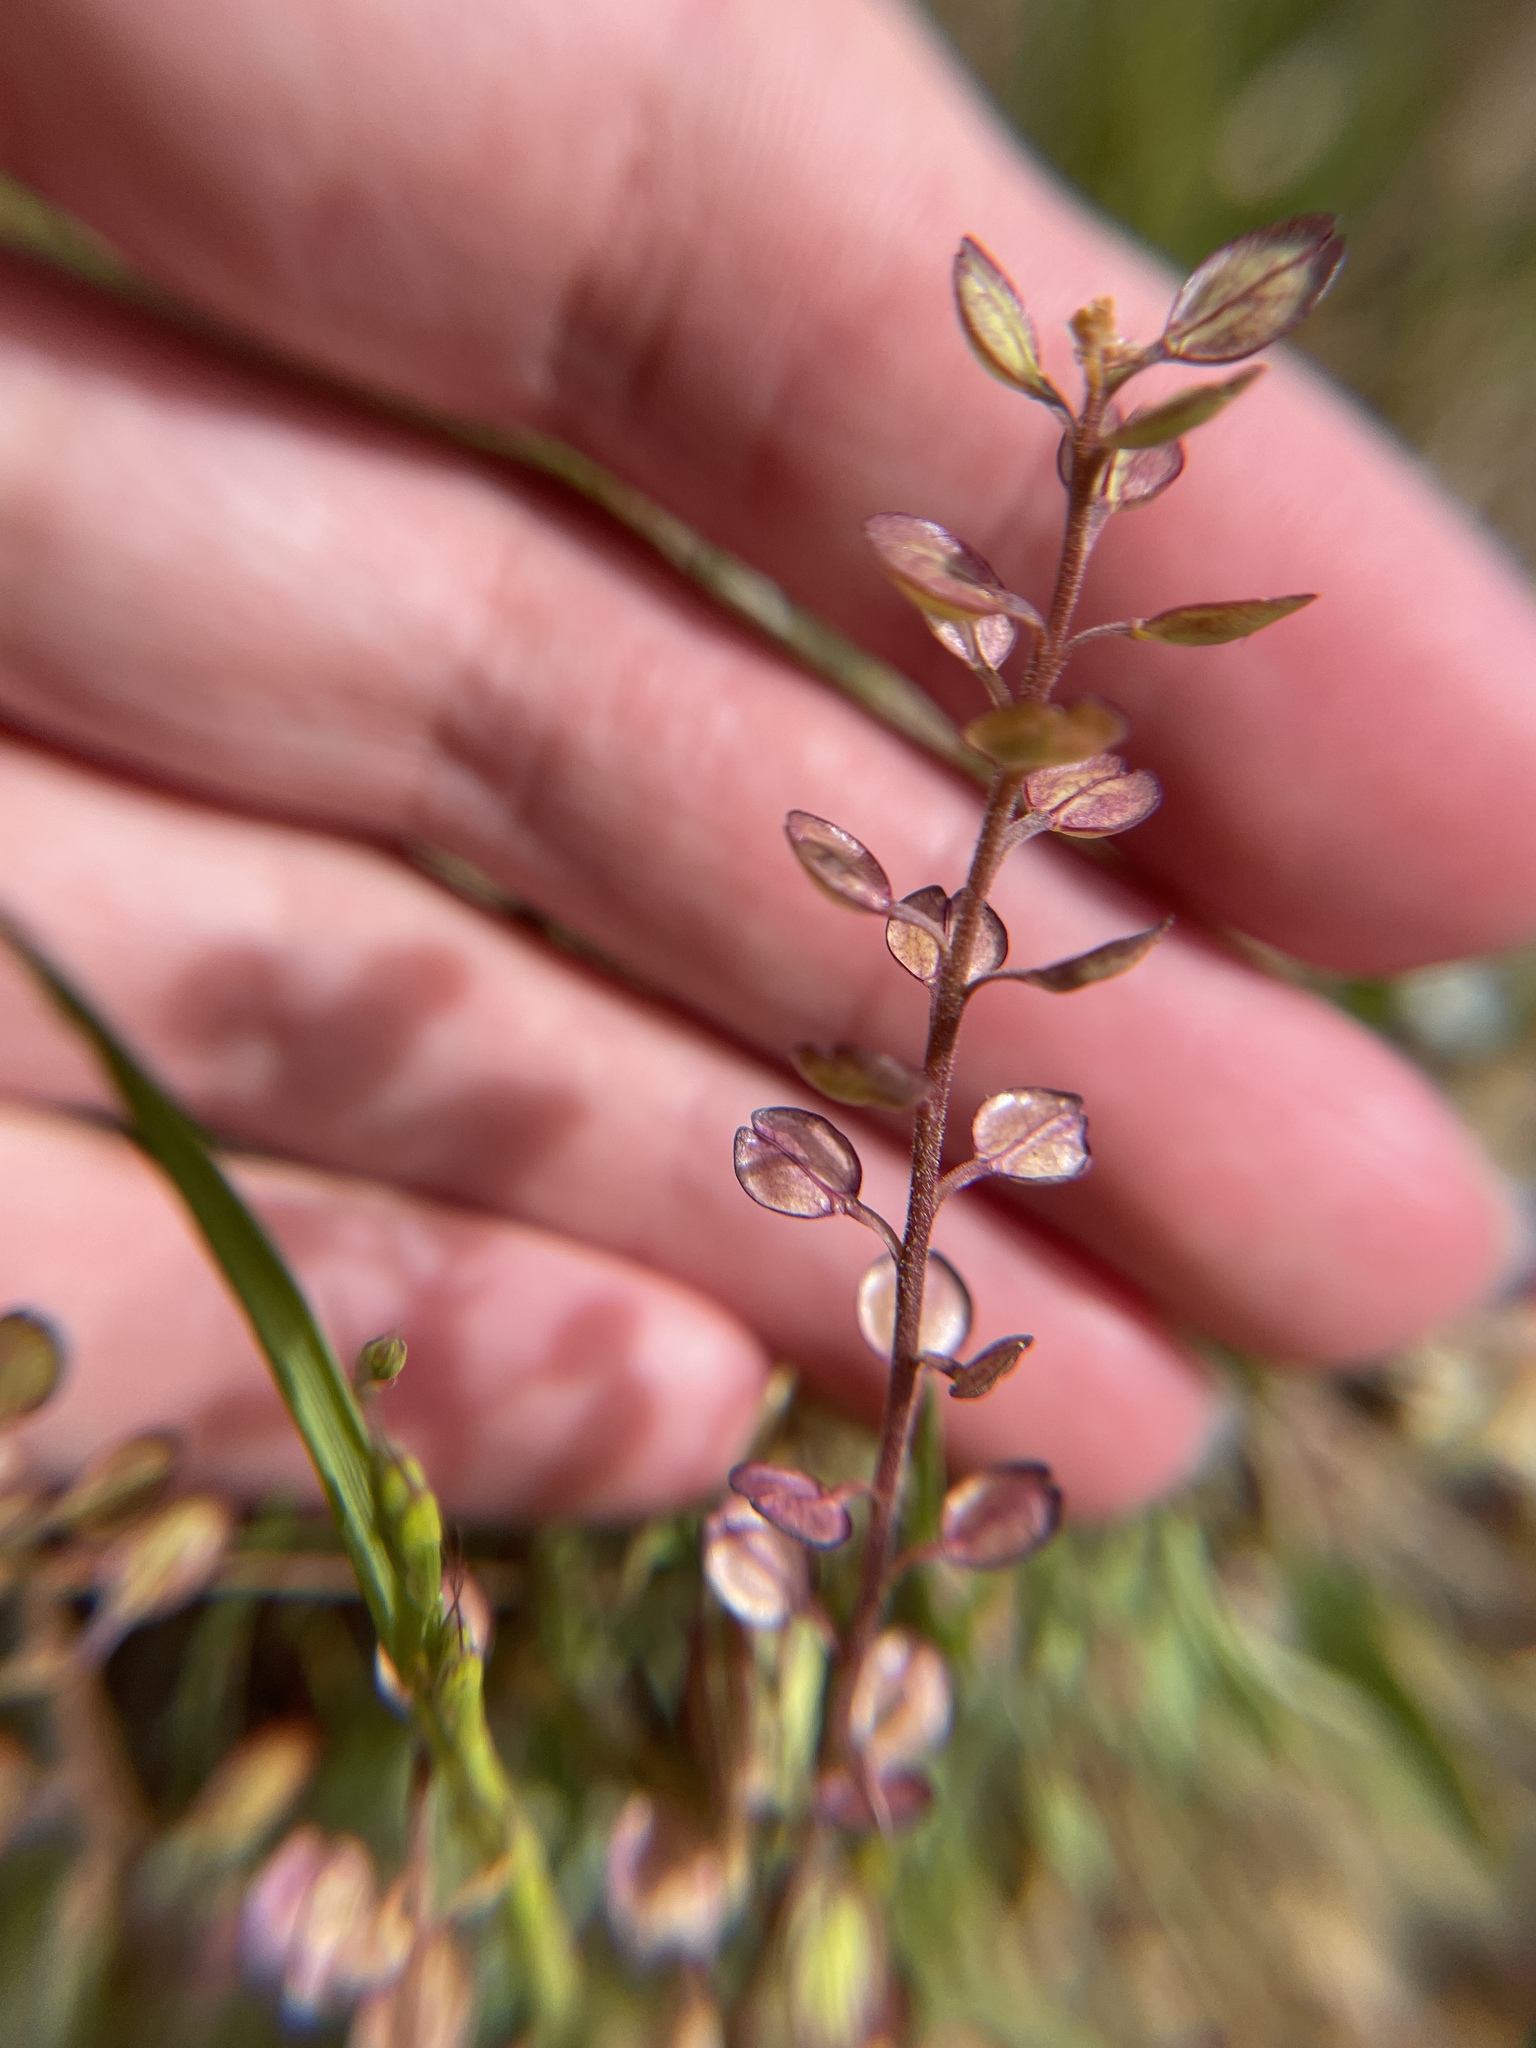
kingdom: Plantae
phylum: Tracheophyta
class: Magnoliopsida
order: Brassicales
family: Brassicaceae
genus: Lepidium
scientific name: Lepidium nitidum
